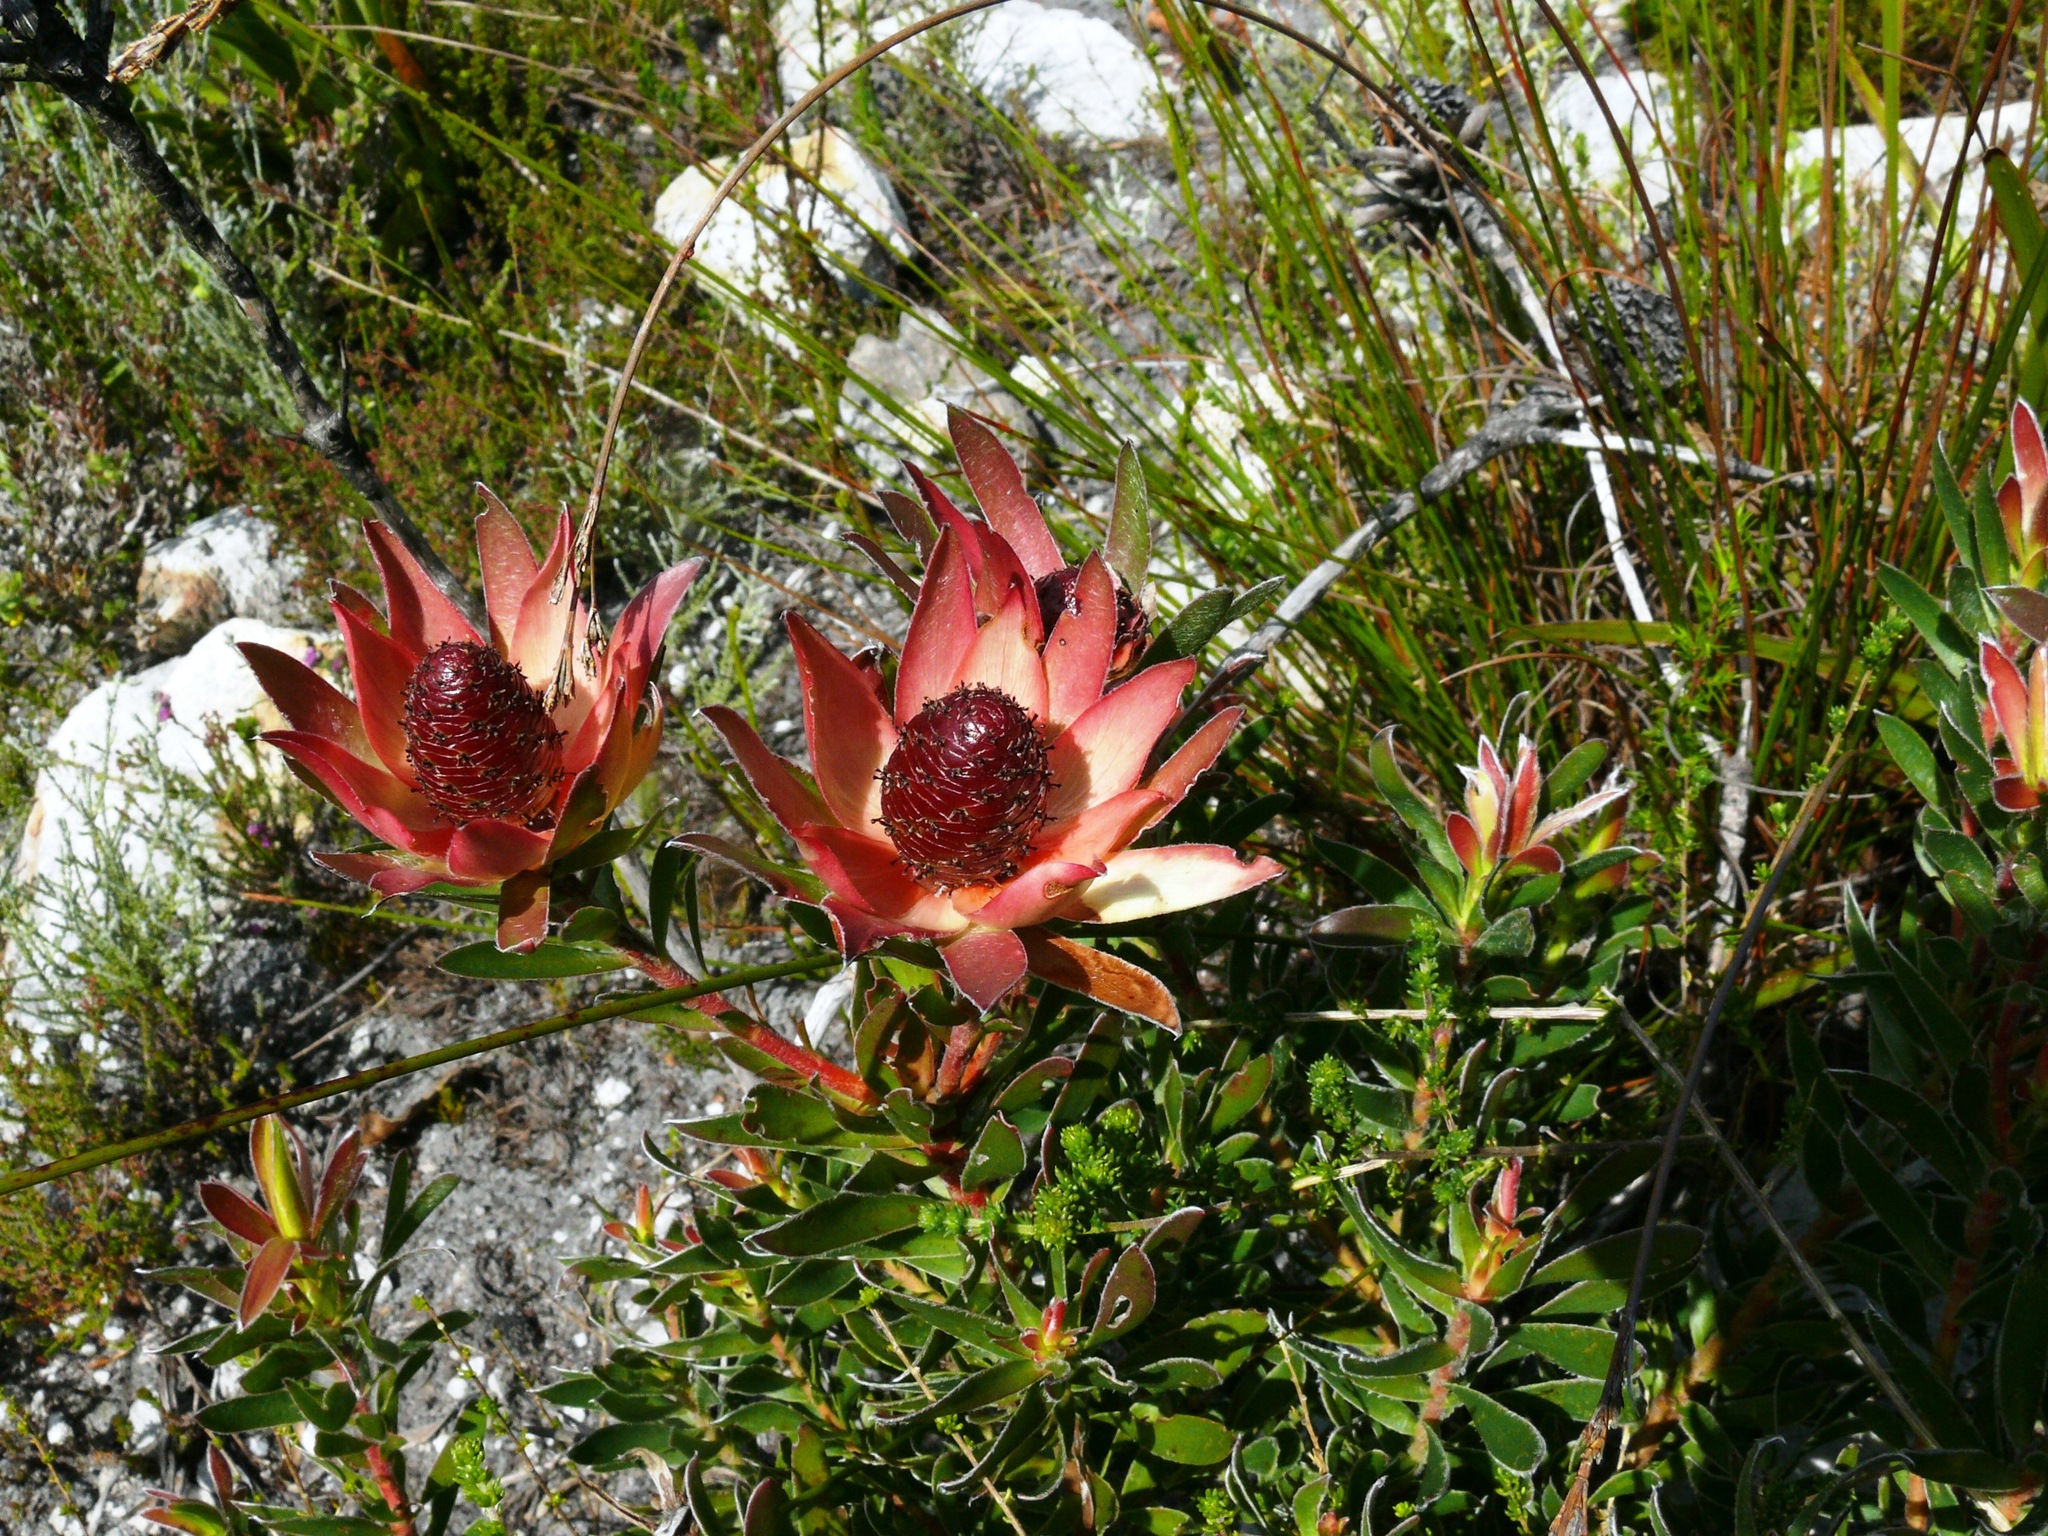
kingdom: Plantae
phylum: Tracheophyta
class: Magnoliopsida
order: Proteales
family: Proteaceae
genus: Leucadendron
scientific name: Leucadendron spissifolium
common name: Spear-leaf conebush
